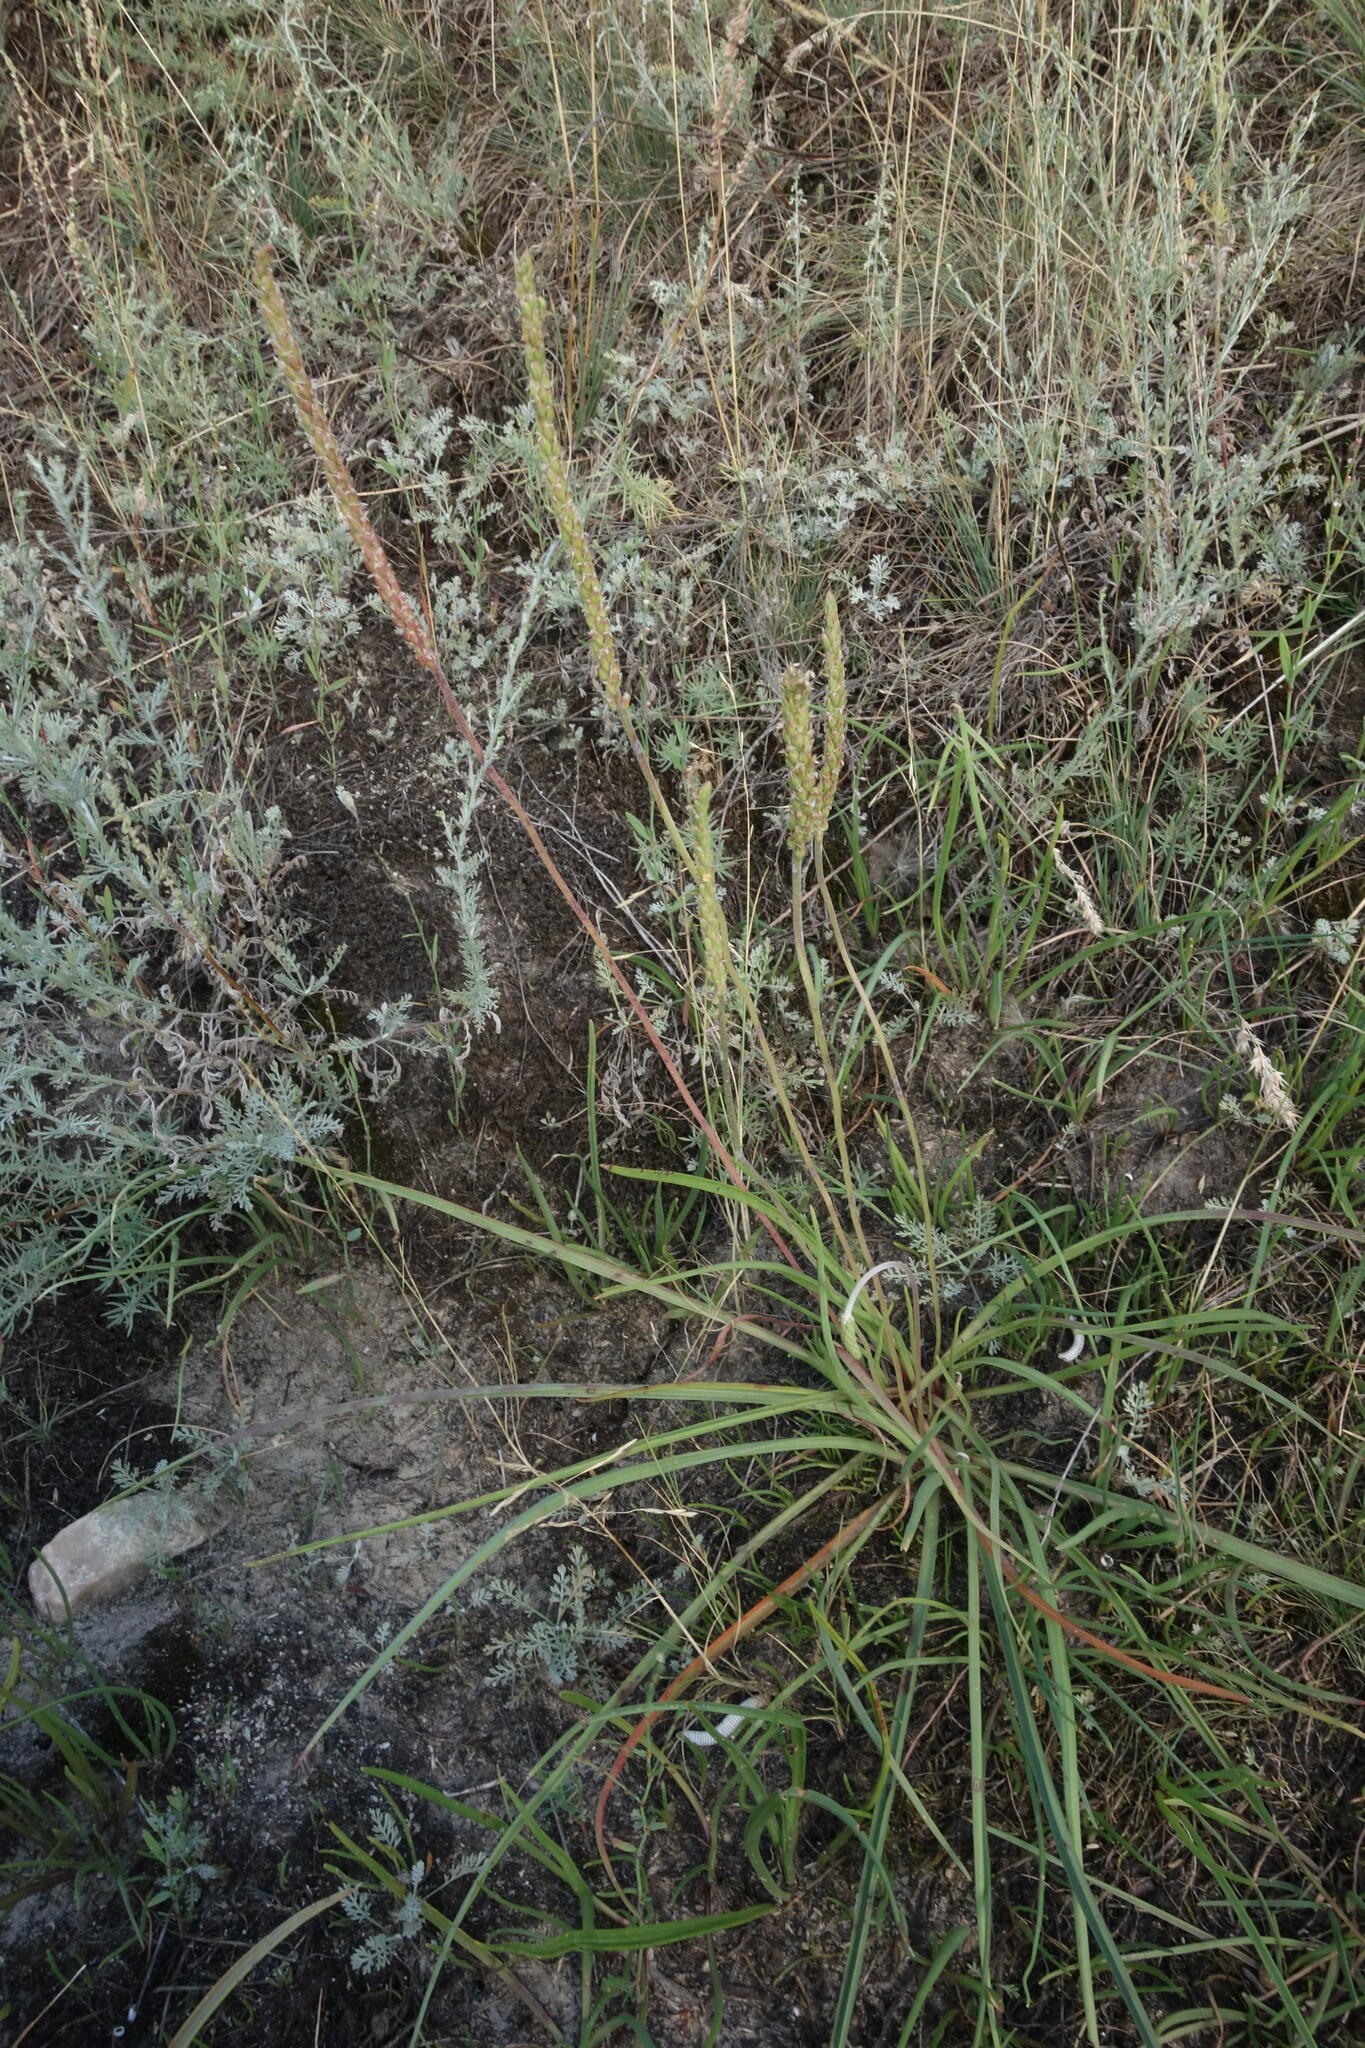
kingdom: Plantae
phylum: Tracheophyta
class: Magnoliopsida
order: Lamiales
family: Plantaginaceae
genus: Plantago
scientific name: Plantago salsa
